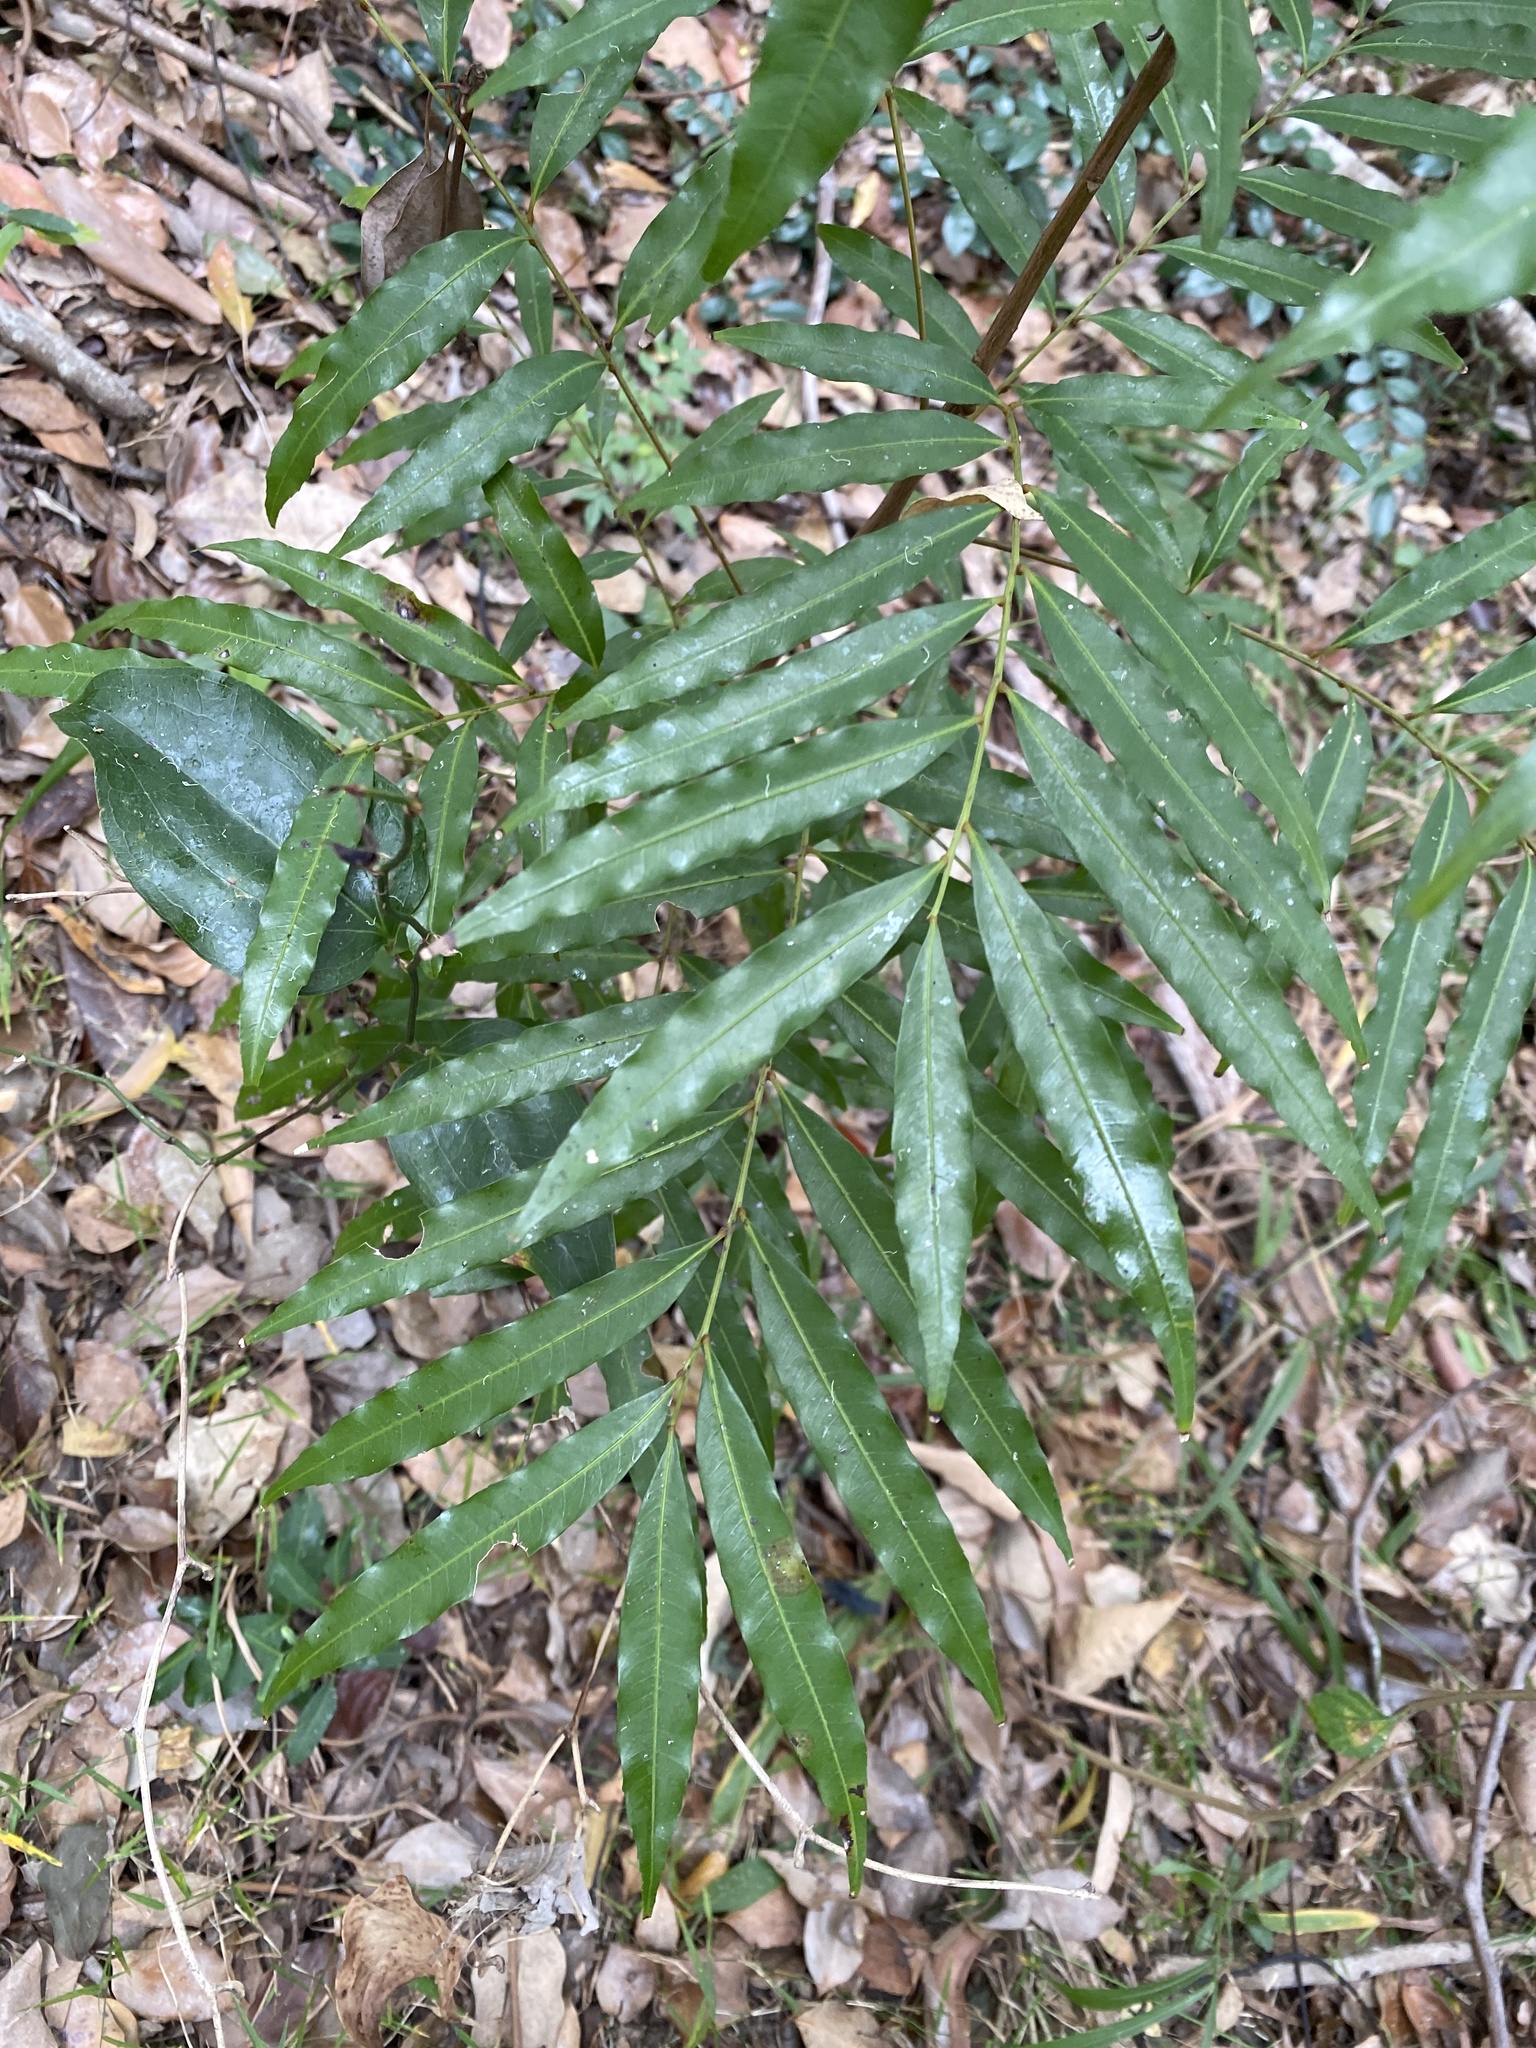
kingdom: Plantae
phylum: Tracheophyta
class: Magnoliopsida
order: Sapindales
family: Sapindaceae
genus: Mischarytera
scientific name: Mischarytera lautereriana
